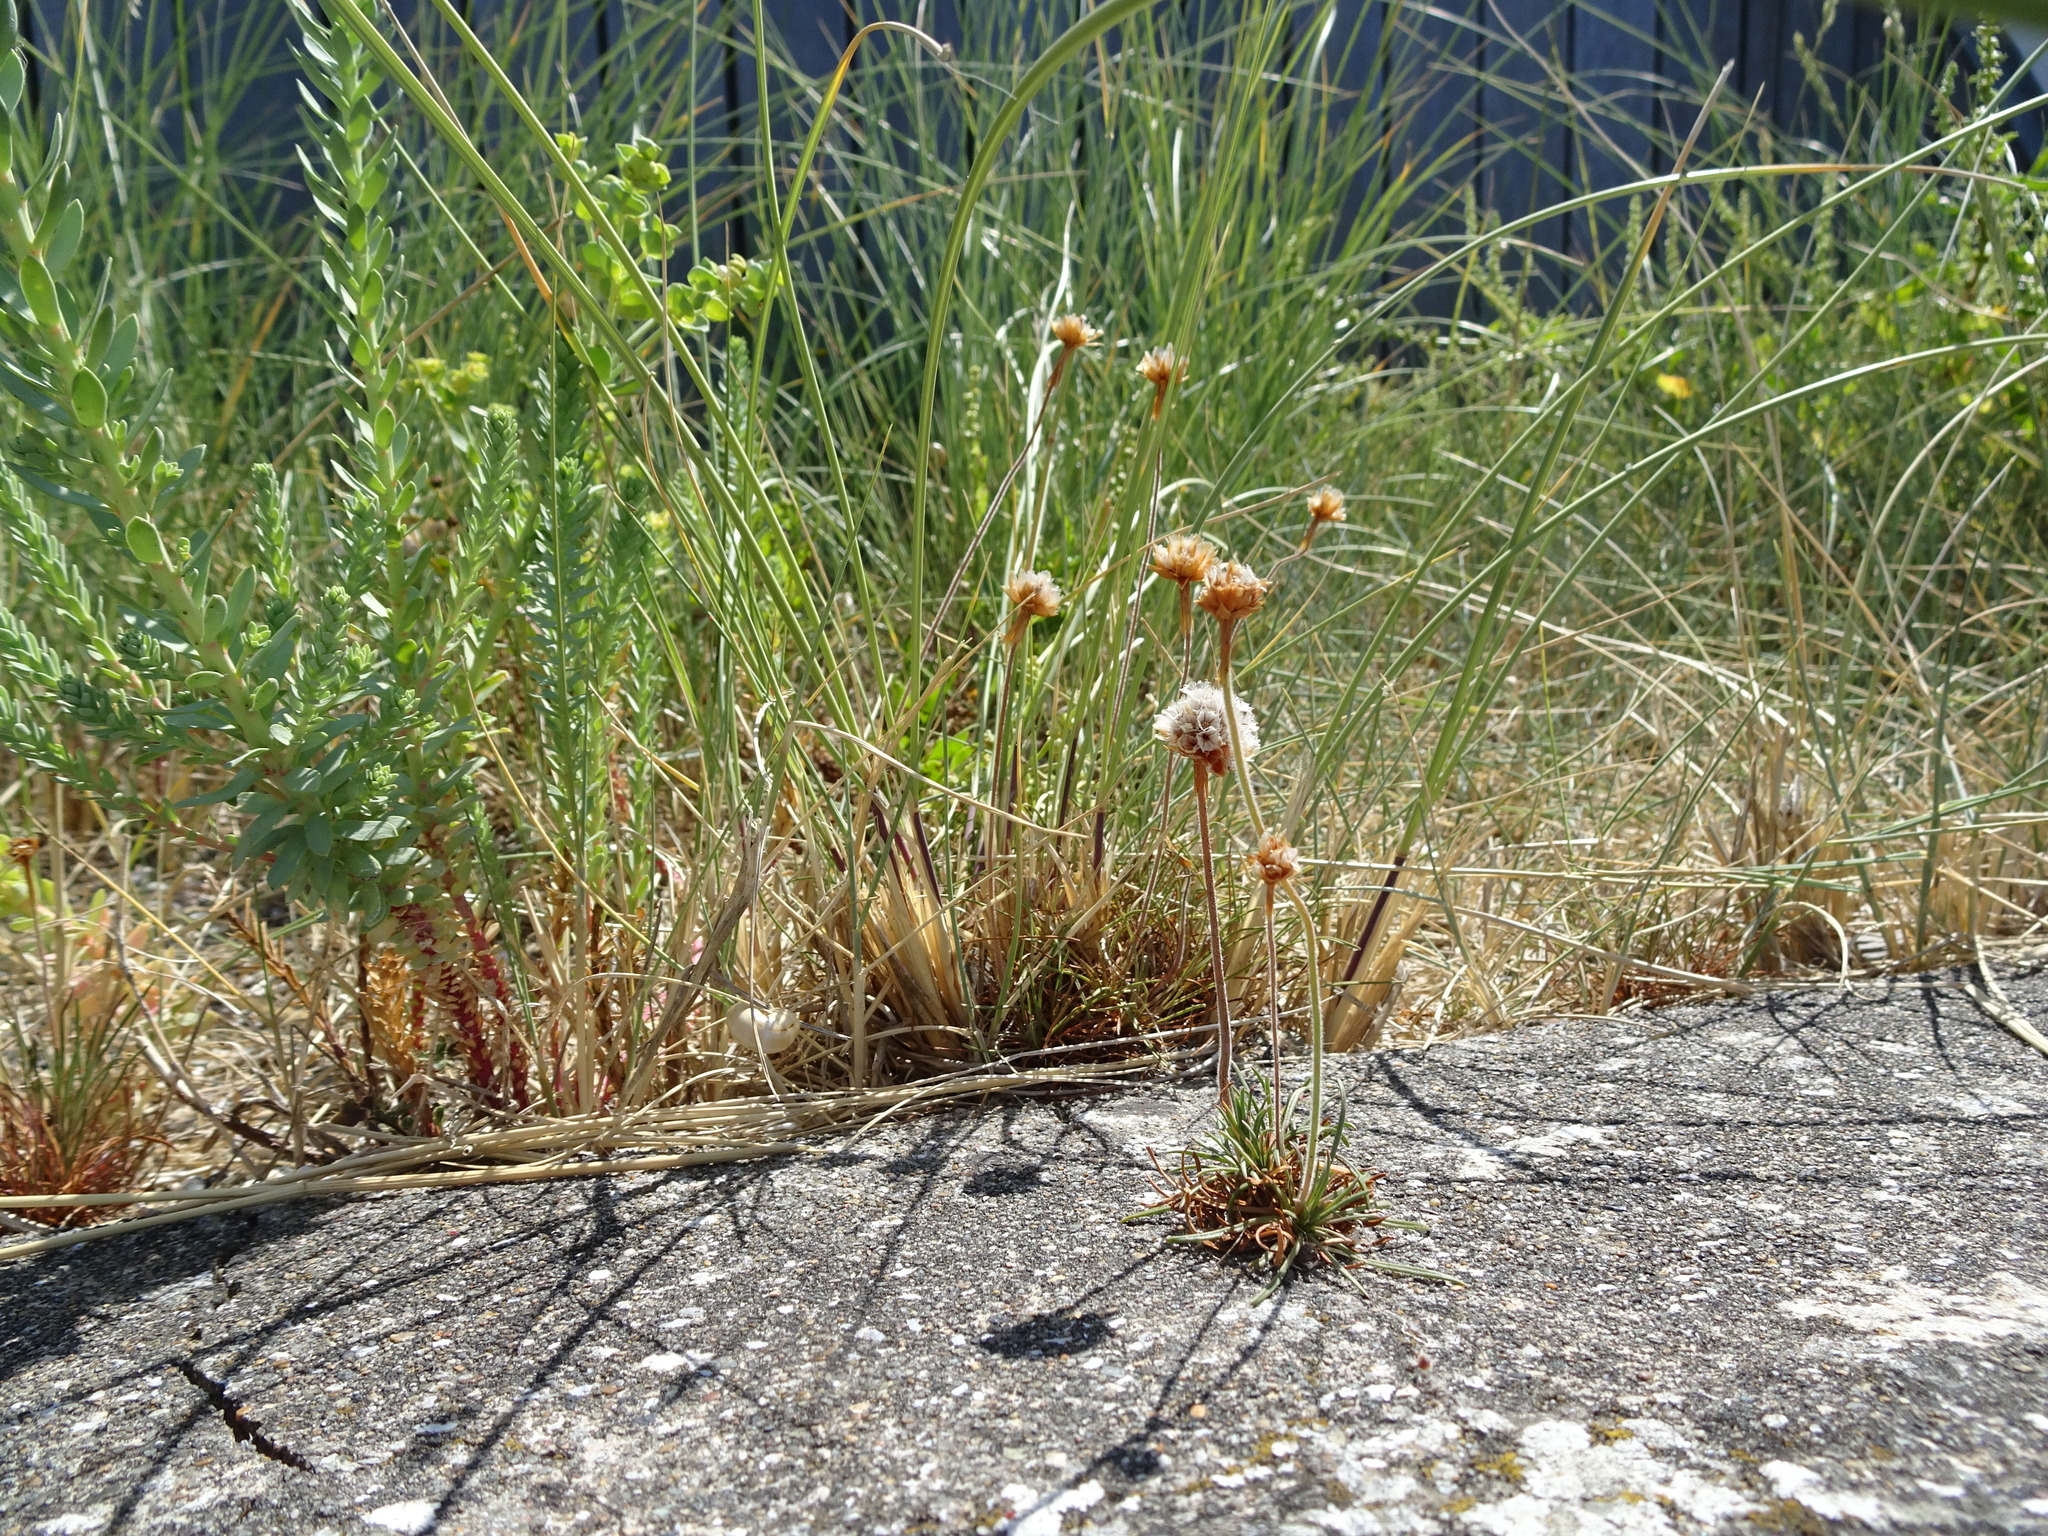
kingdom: Plantae
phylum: Tracheophyta
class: Magnoliopsida
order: Caryophyllales
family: Plumbaginaceae
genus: Armeria
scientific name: Armeria maritima
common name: Thrift
